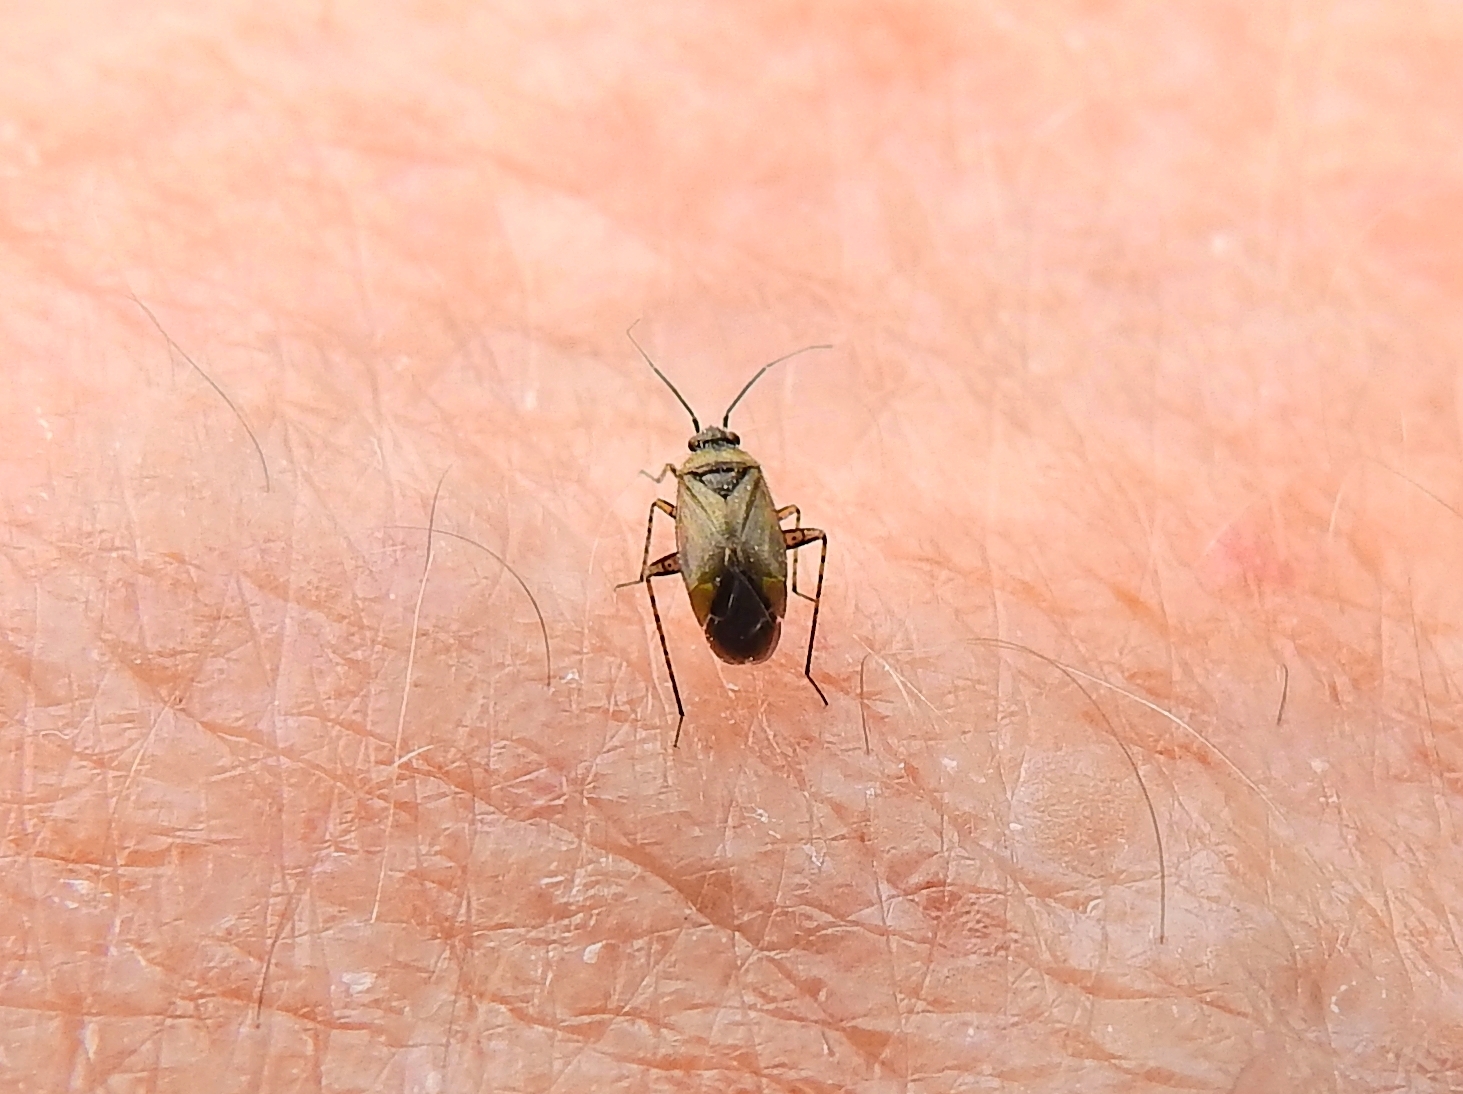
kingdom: Animalia
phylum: Arthropoda
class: Insecta
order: Hemiptera
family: Miridae
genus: Plagiognathus
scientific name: Plagiognathus arbustorum
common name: Plant bug
